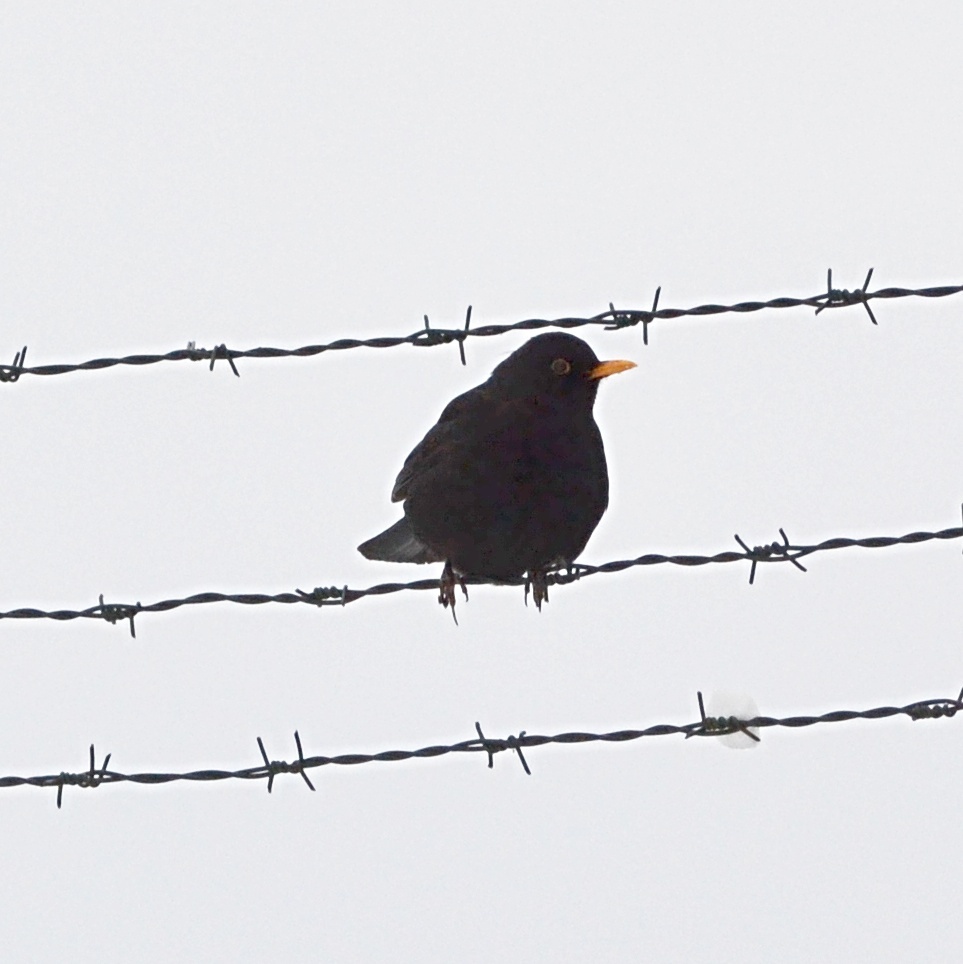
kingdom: Animalia
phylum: Chordata
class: Aves
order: Passeriformes
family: Turdidae
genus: Turdus
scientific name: Turdus merula
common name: Common blackbird
